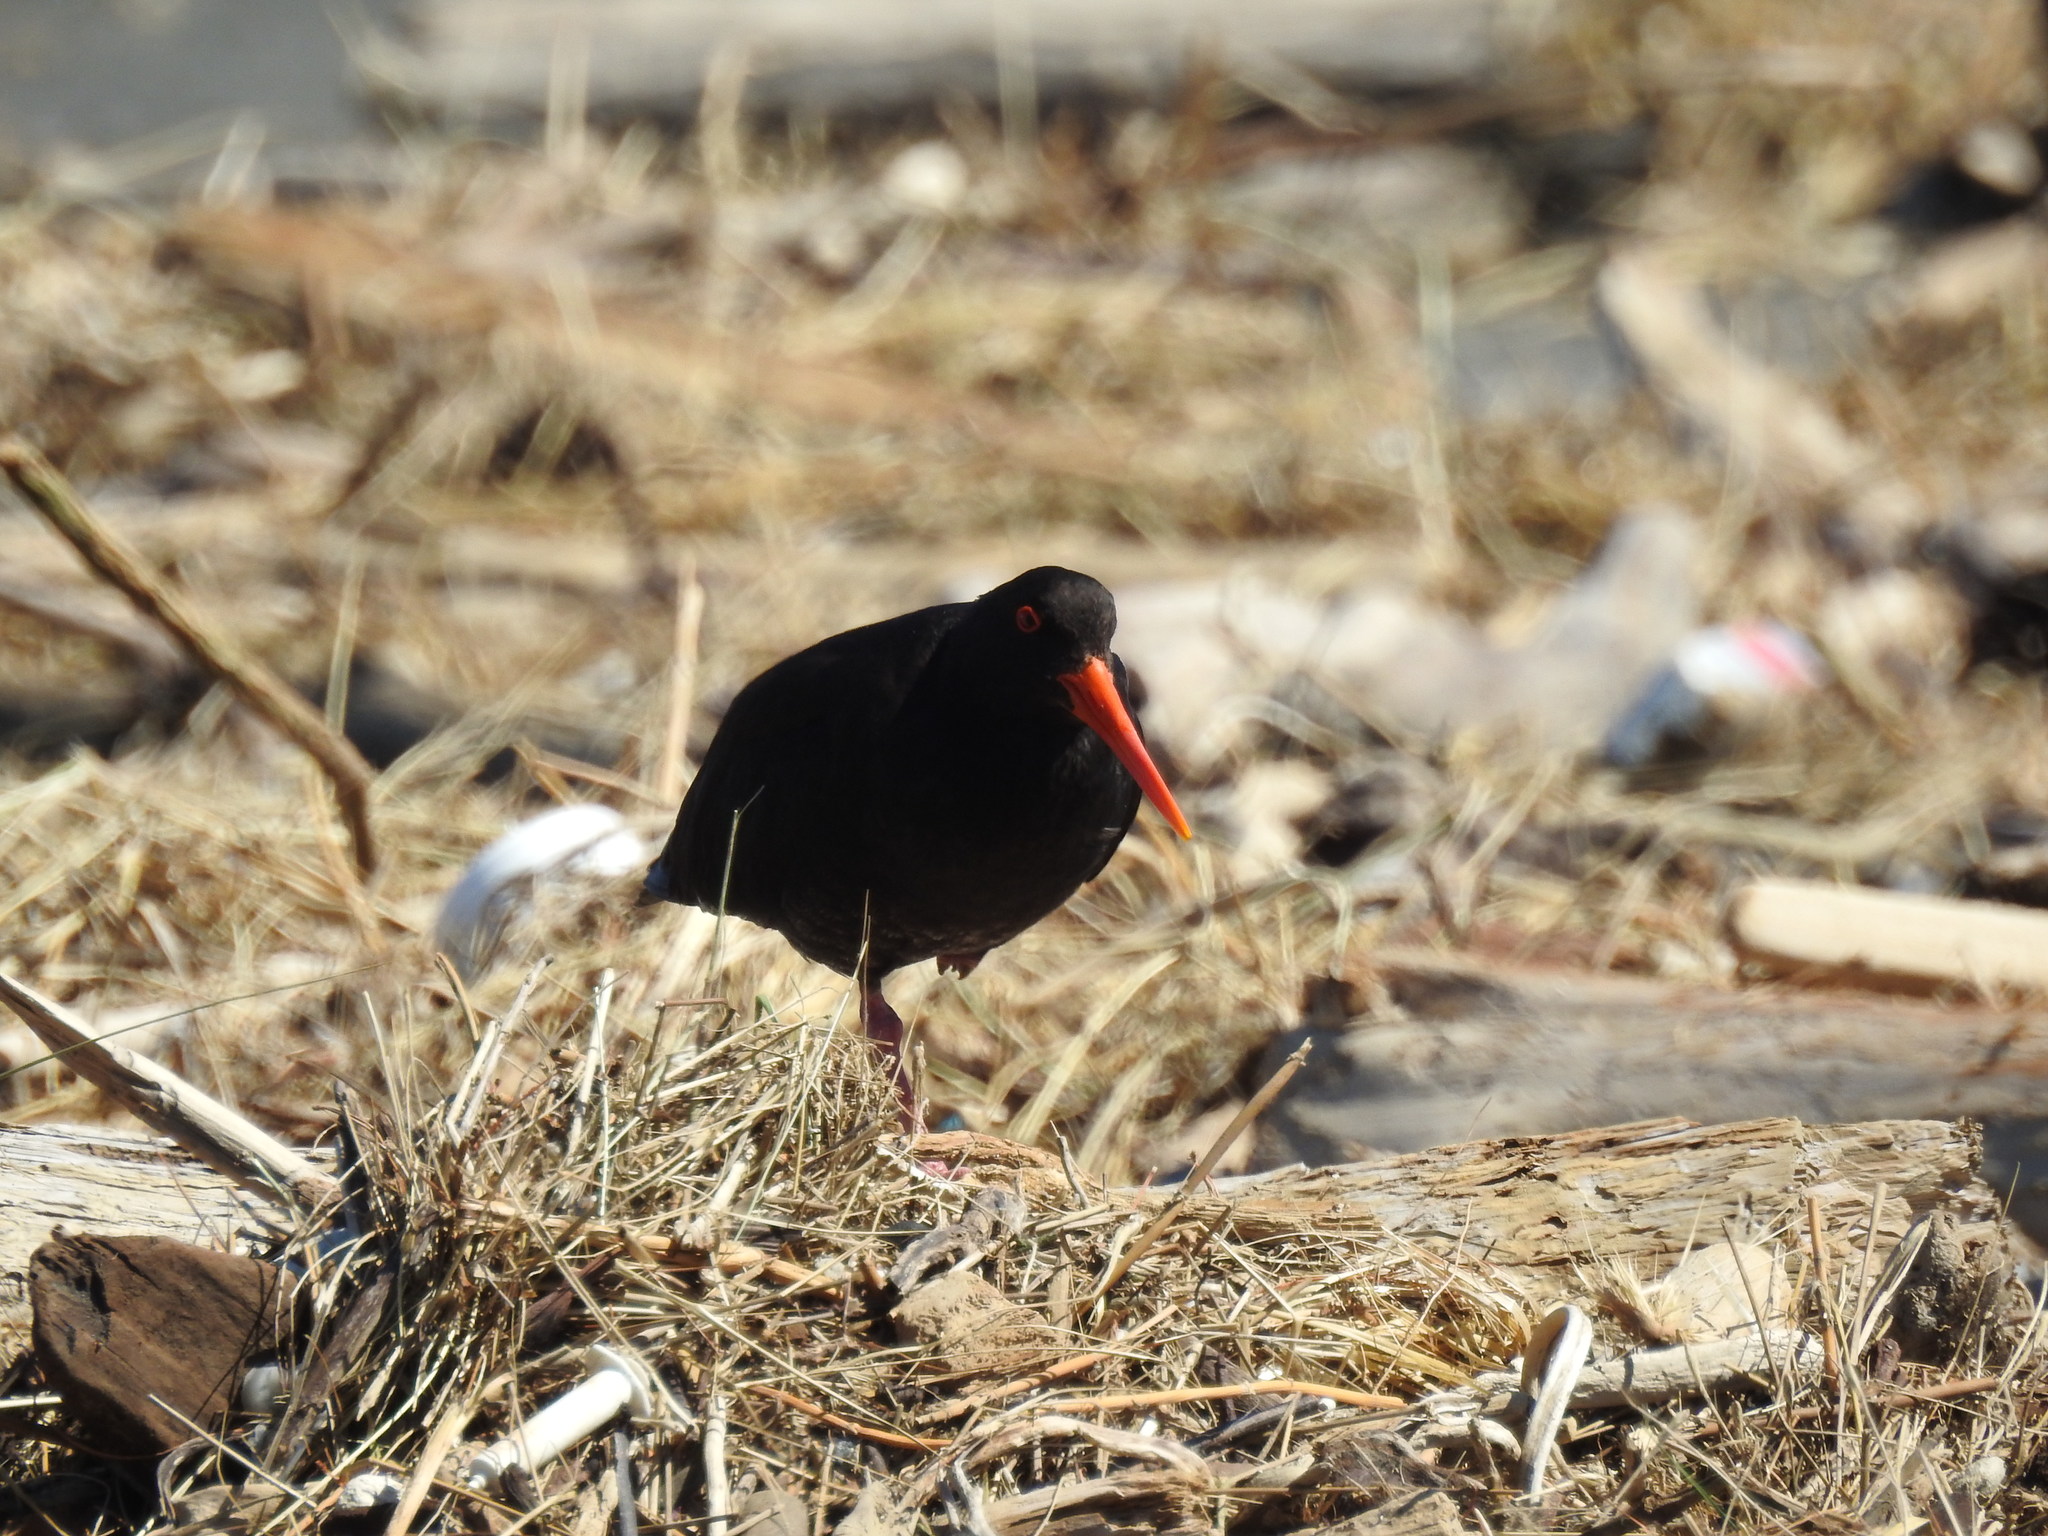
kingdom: Animalia
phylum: Chordata
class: Aves
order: Charadriiformes
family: Haematopodidae
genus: Haematopus
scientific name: Haematopus unicolor
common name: Variable oystercatcher
